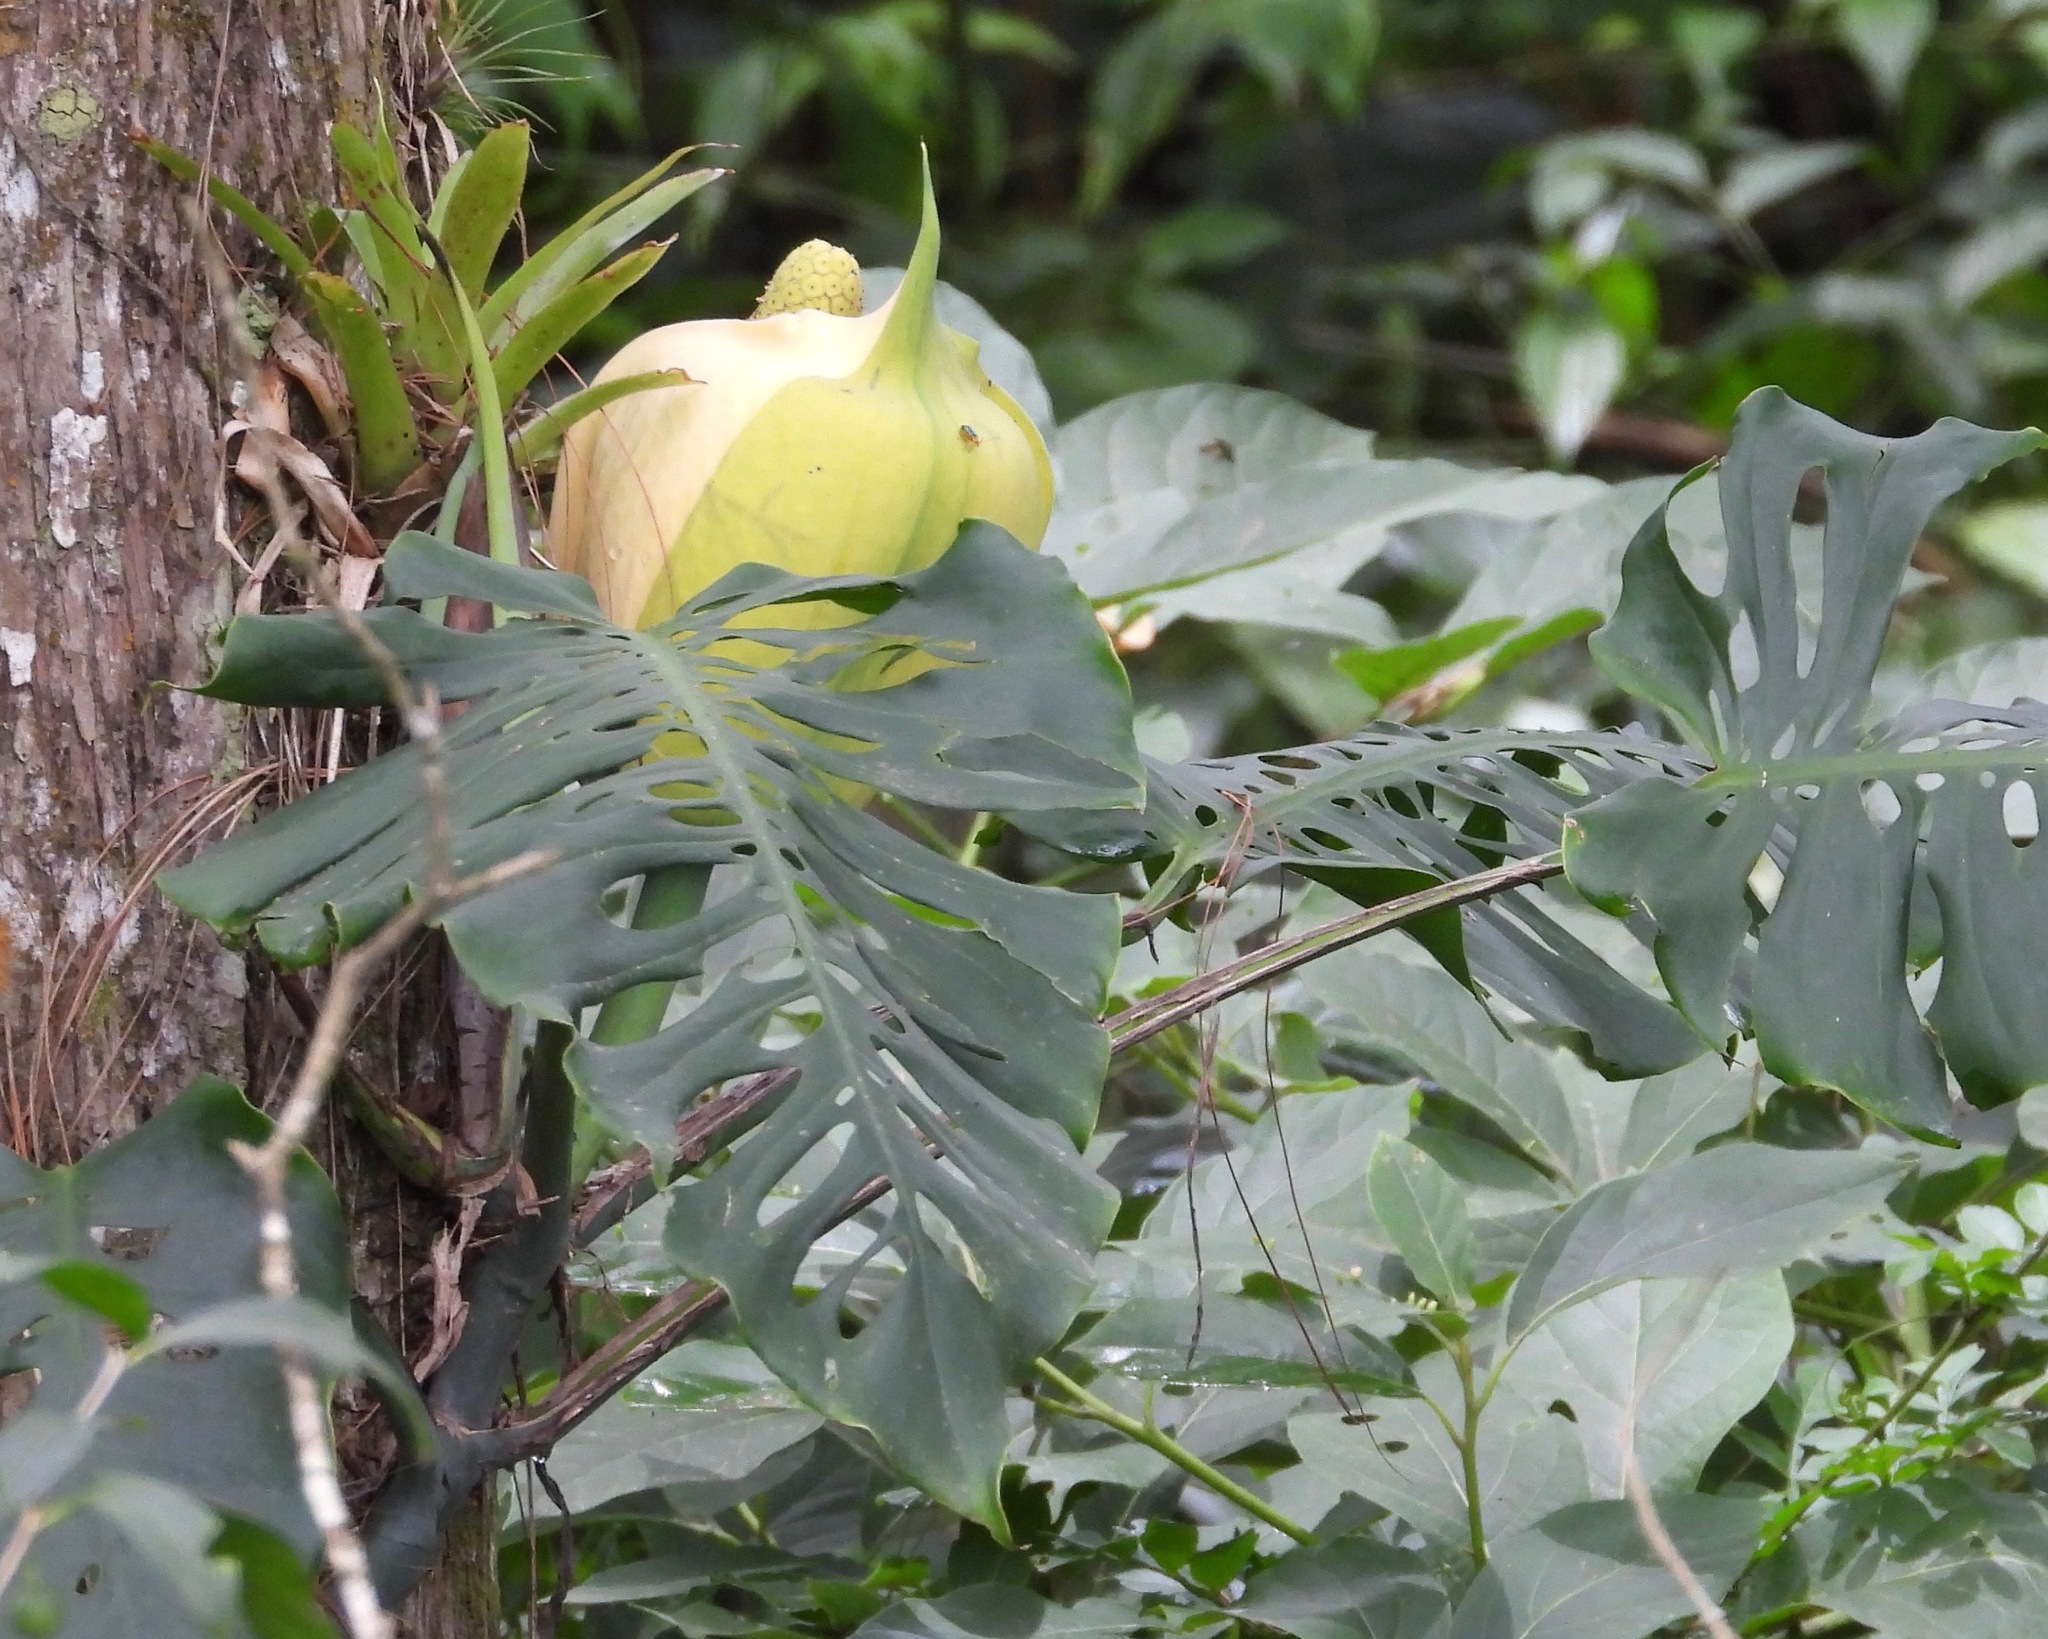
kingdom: Plantae
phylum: Tracheophyta
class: Liliopsida
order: Alismatales
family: Araceae
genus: Monstera
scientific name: Monstera siltepecana
